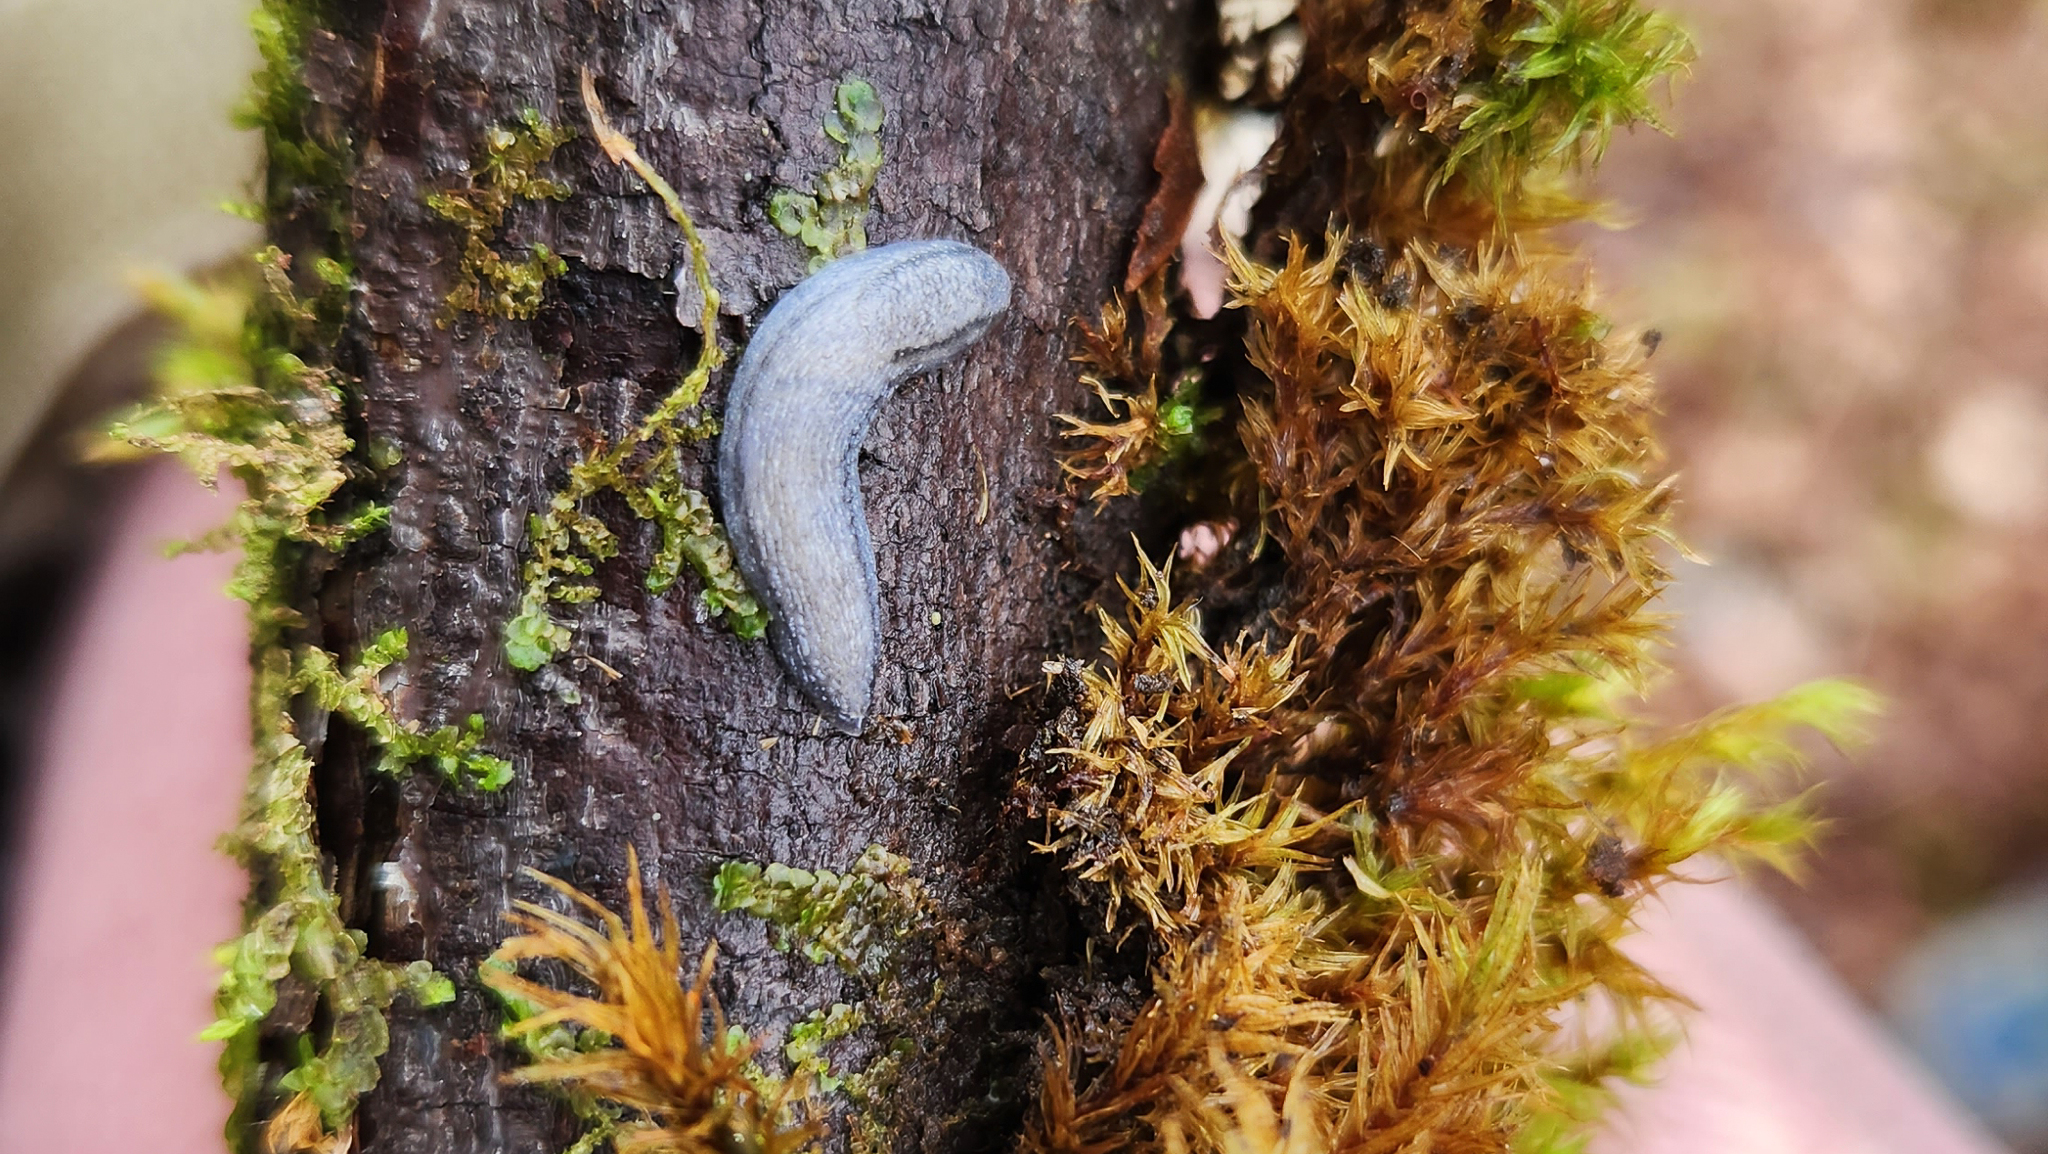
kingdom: Animalia
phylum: Mollusca
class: Gastropoda
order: Stylommatophora
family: Arionidae
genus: Carinarion
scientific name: Carinarion
